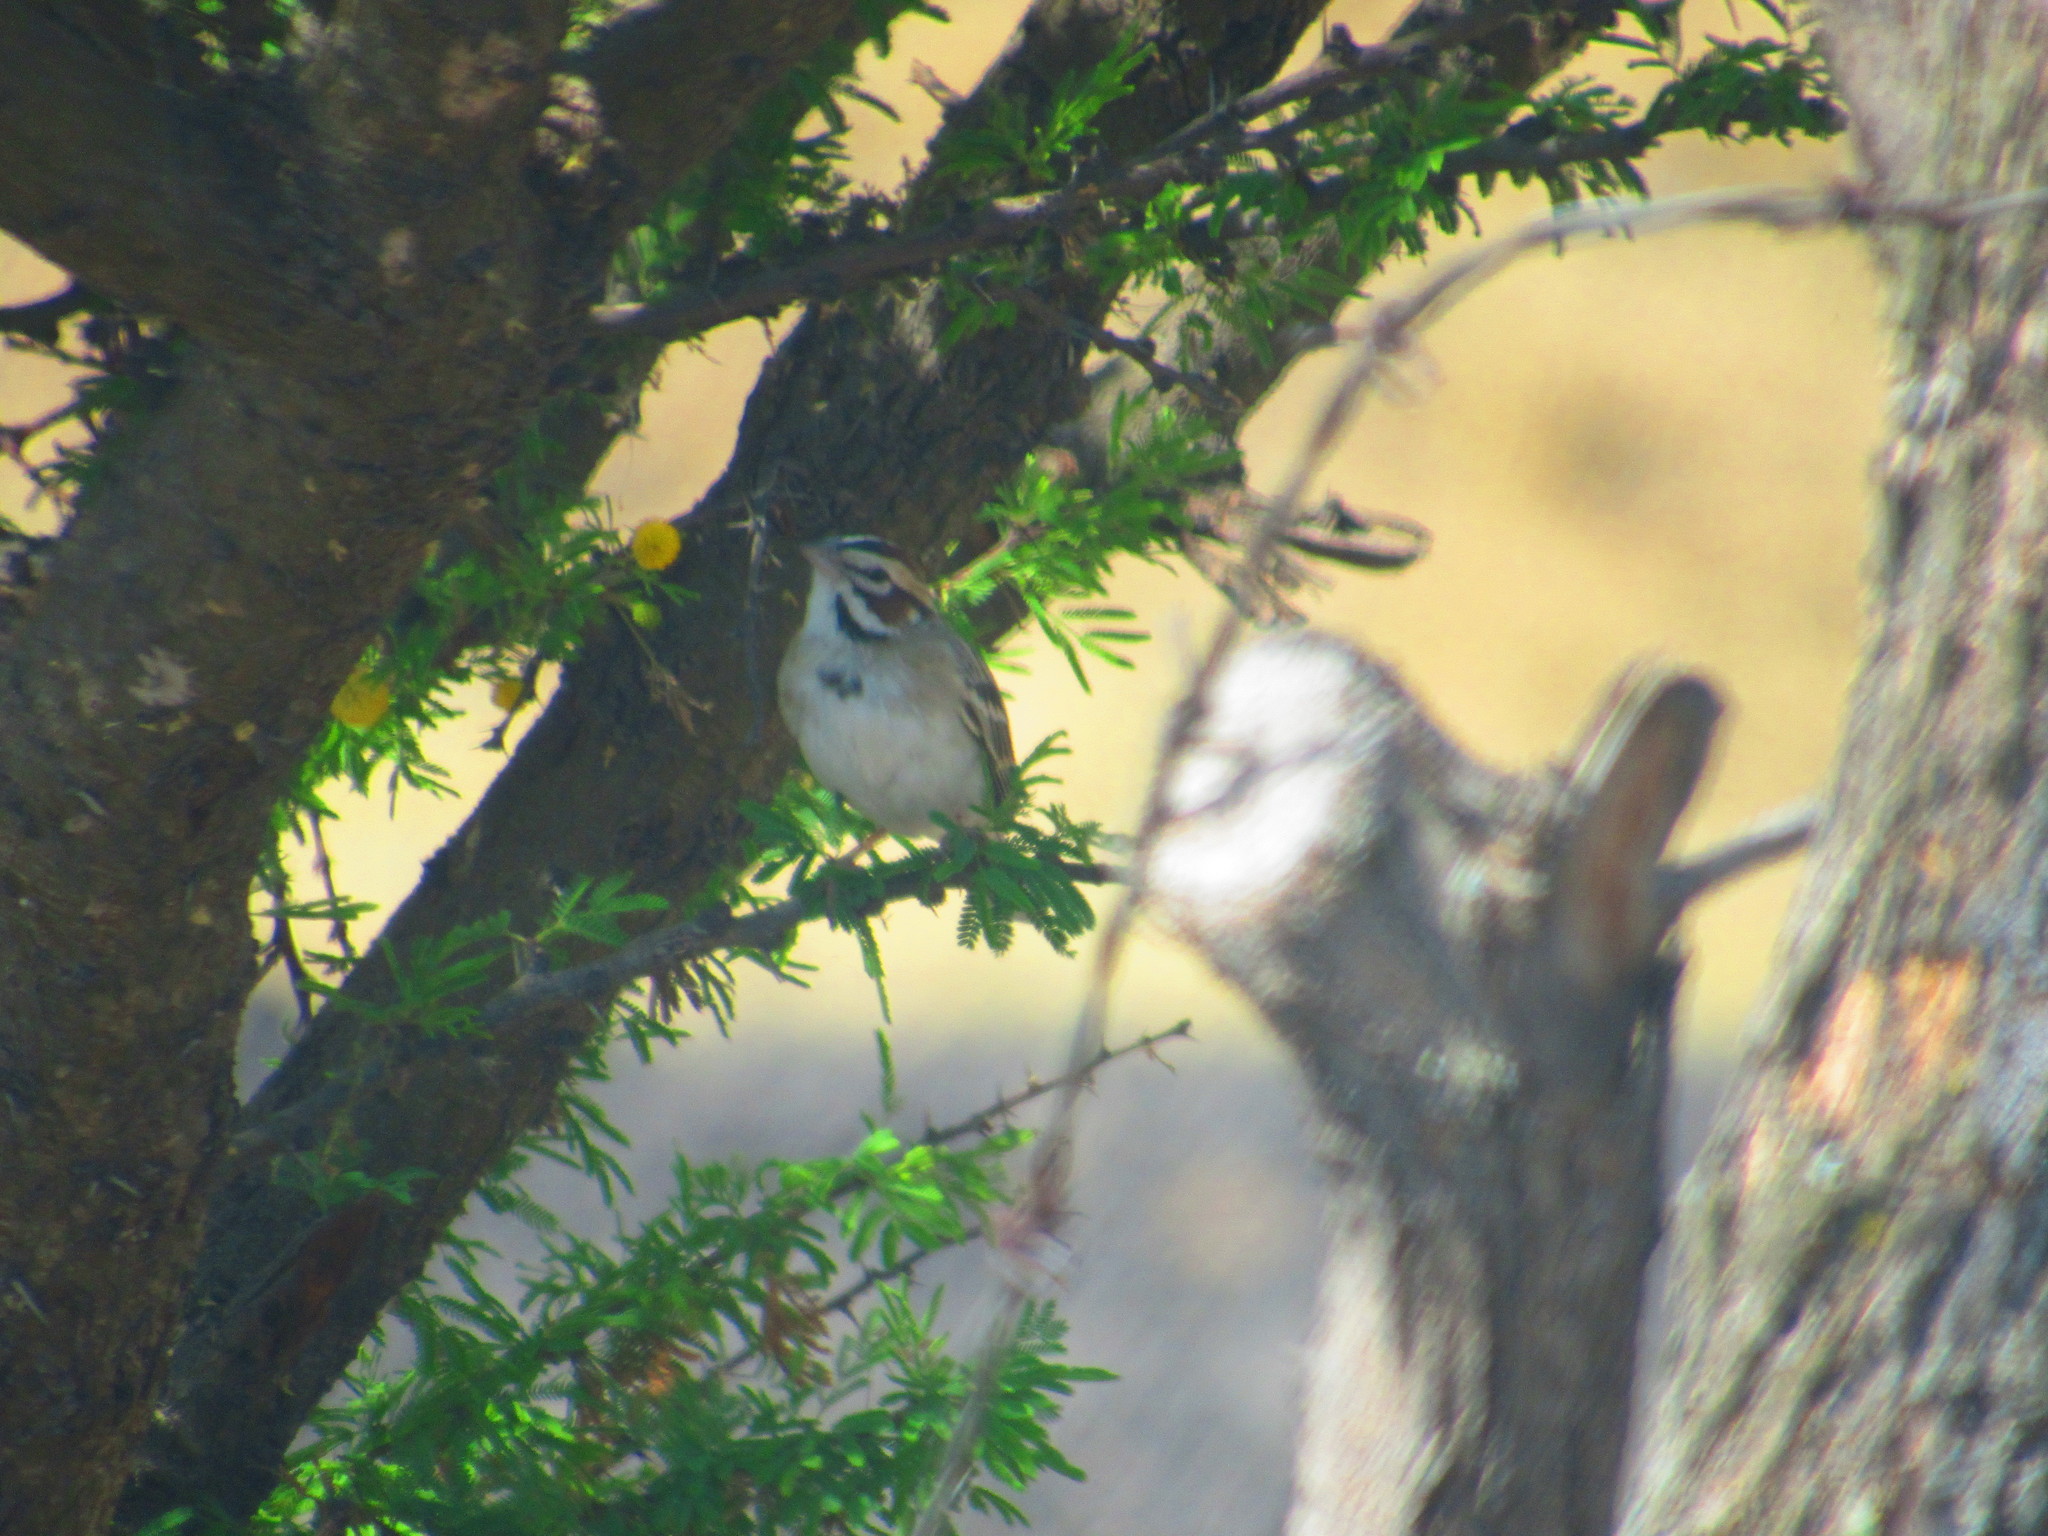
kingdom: Animalia
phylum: Chordata
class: Aves
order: Passeriformes
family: Passerellidae
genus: Chondestes
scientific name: Chondestes grammacus
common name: Lark sparrow
